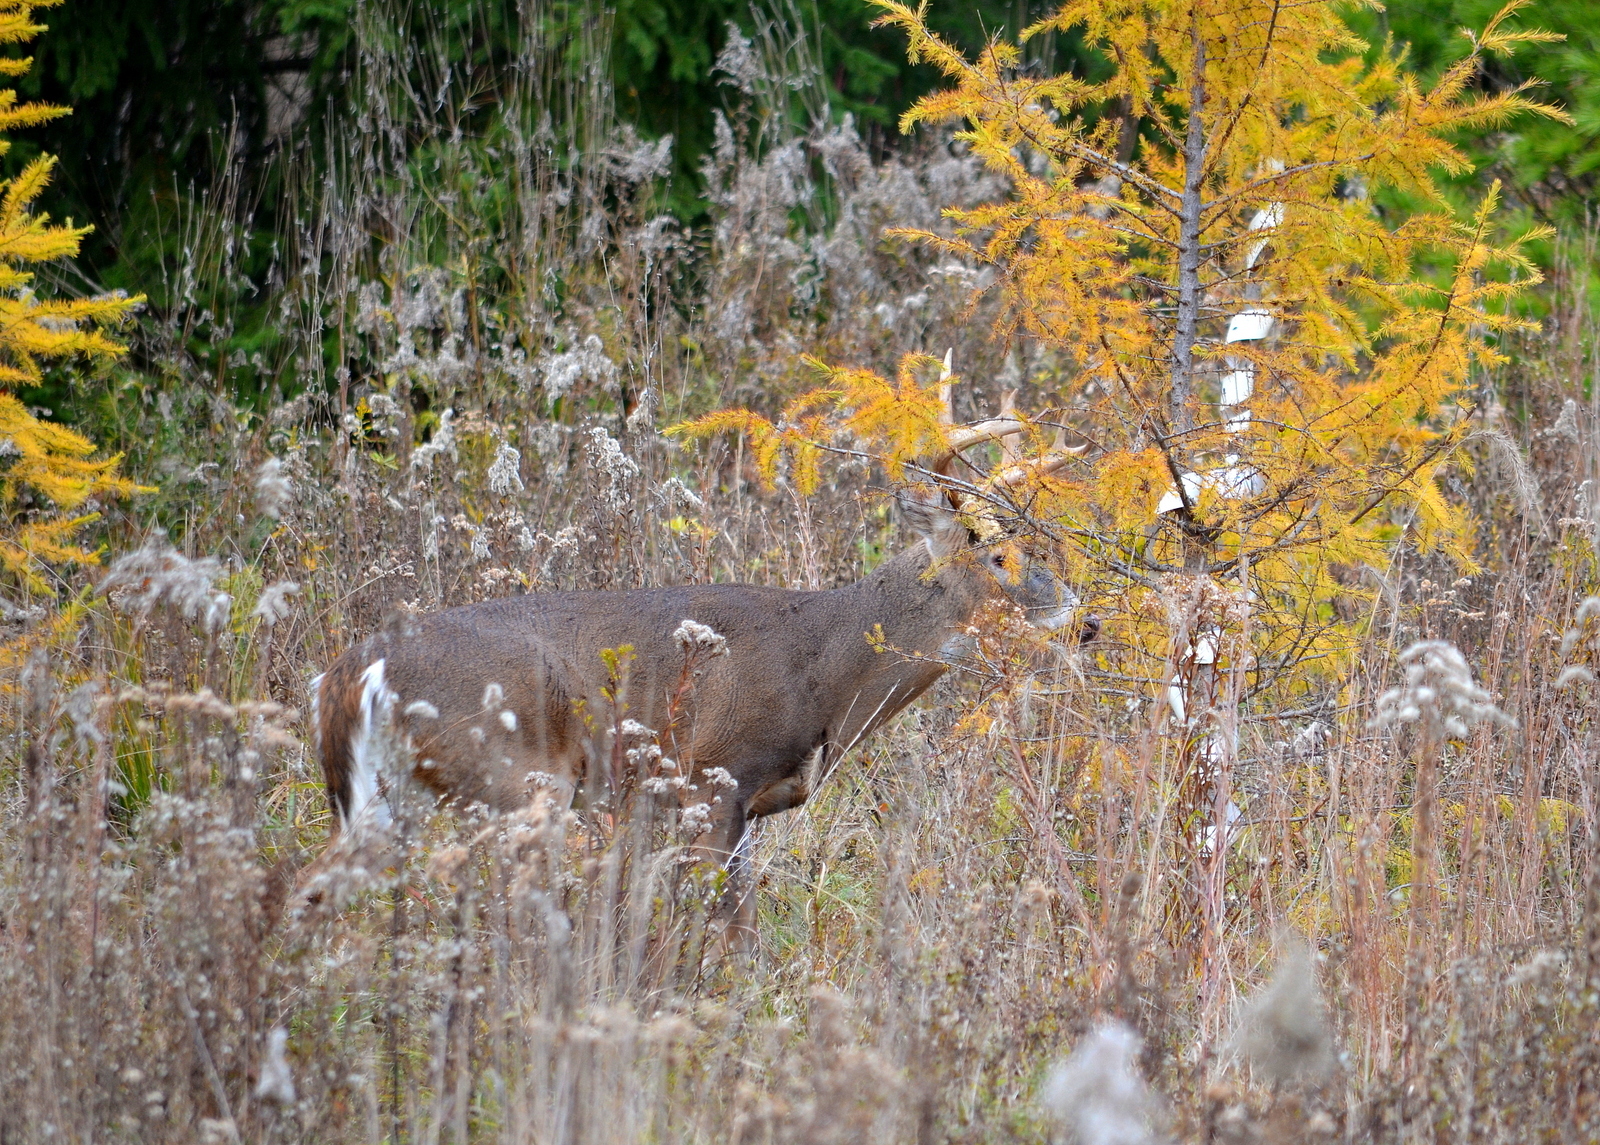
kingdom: Animalia
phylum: Chordata
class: Mammalia
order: Artiodactyla
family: Cervidae
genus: Odocoileus
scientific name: Odocoileus virginianus
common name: White-tailed deer
